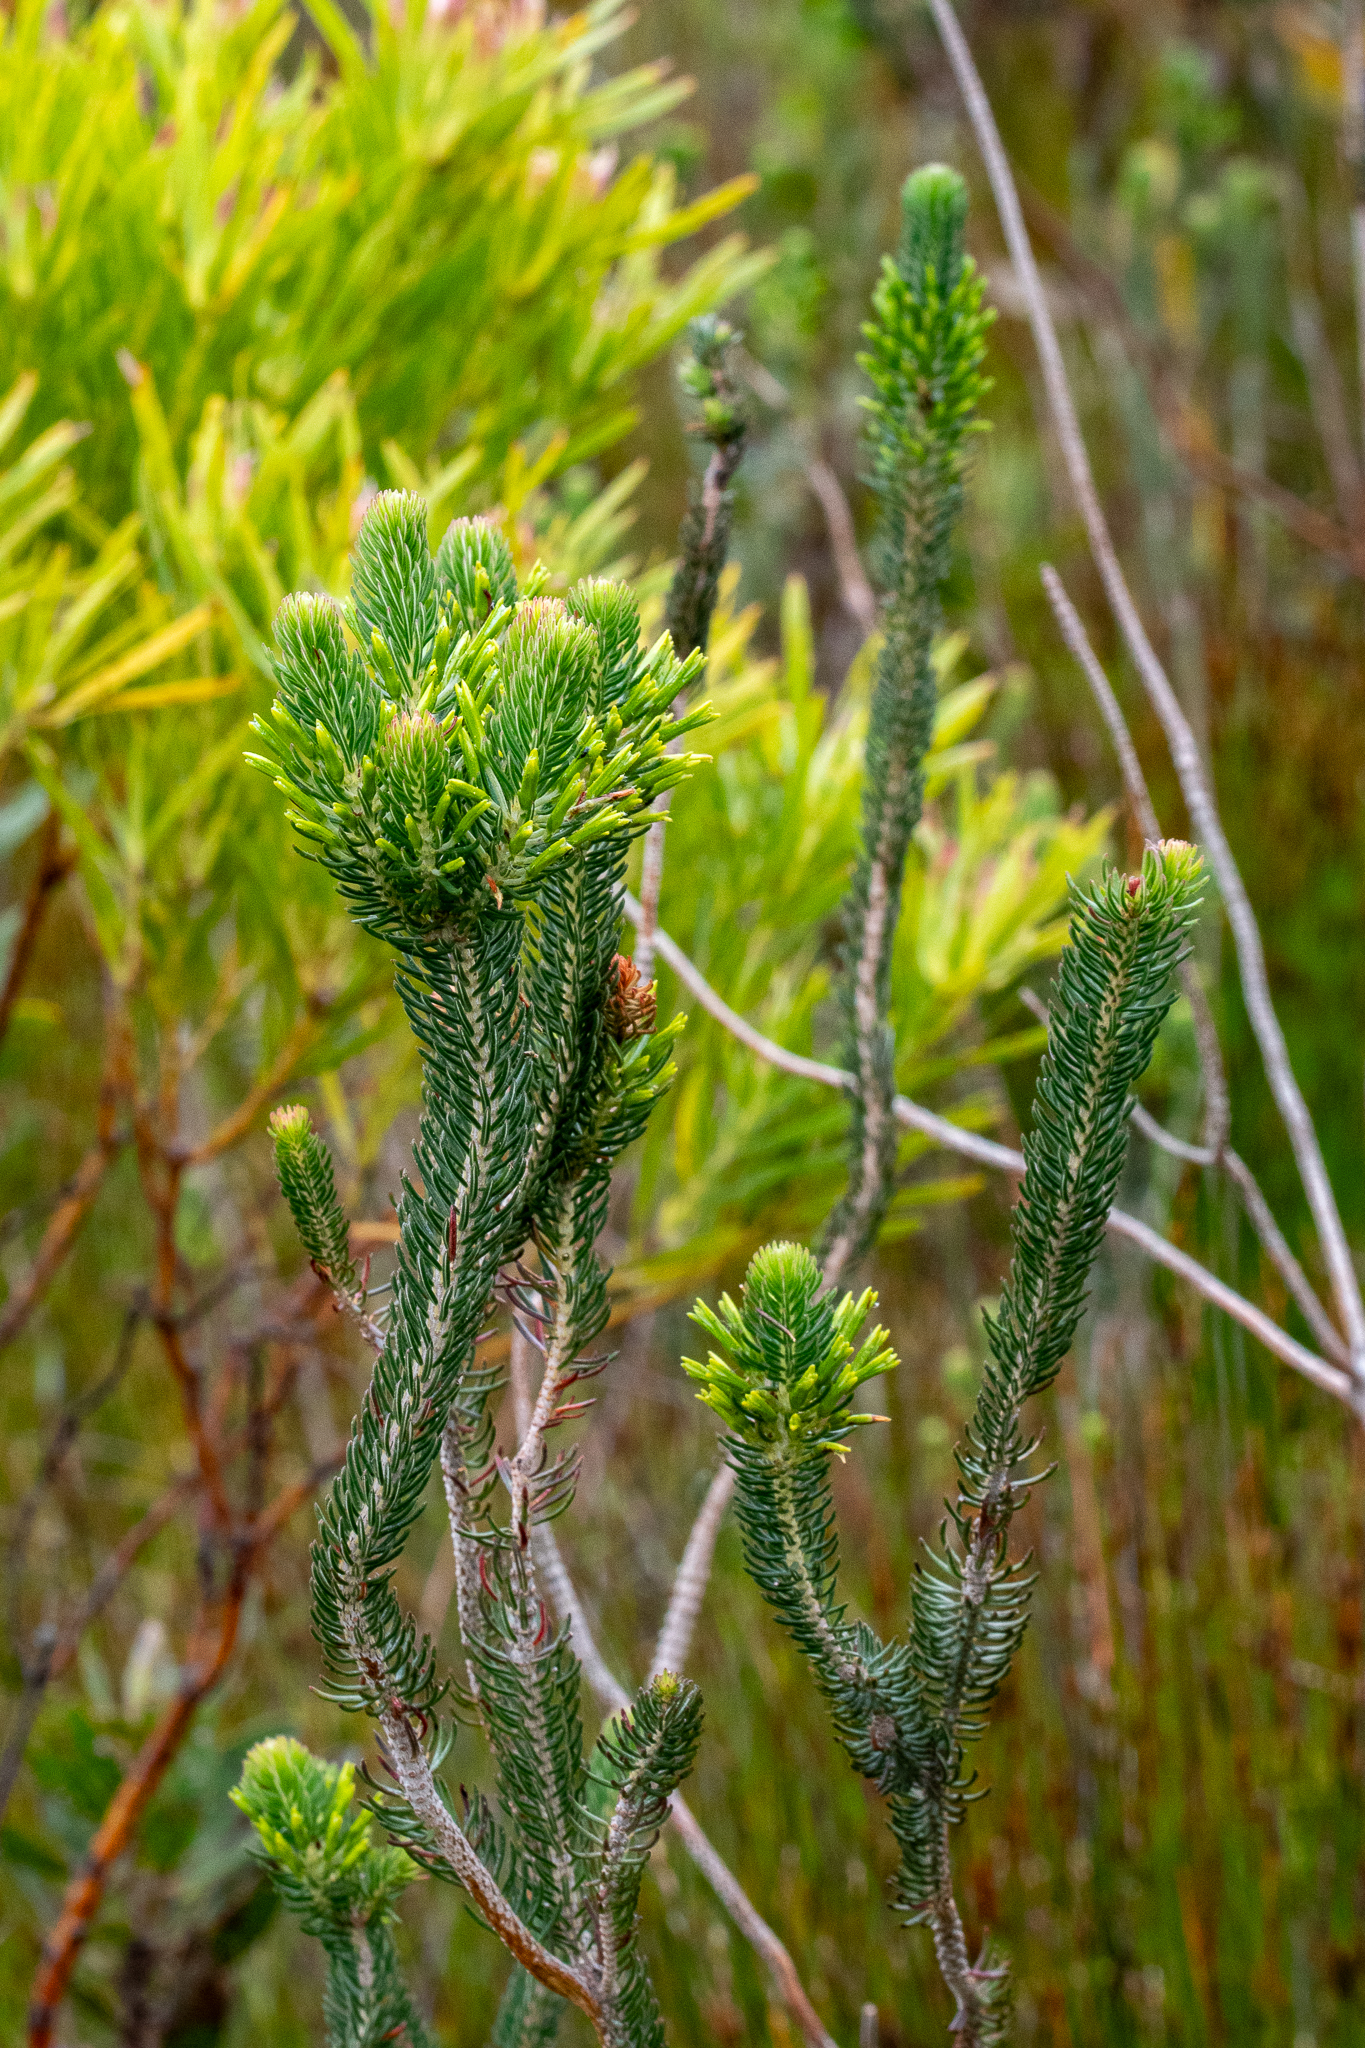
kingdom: Plantae
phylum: Tracheophyta
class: Magnoliopsida
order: Ericales
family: Ericaceae
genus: Erica
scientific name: Erica thomae
